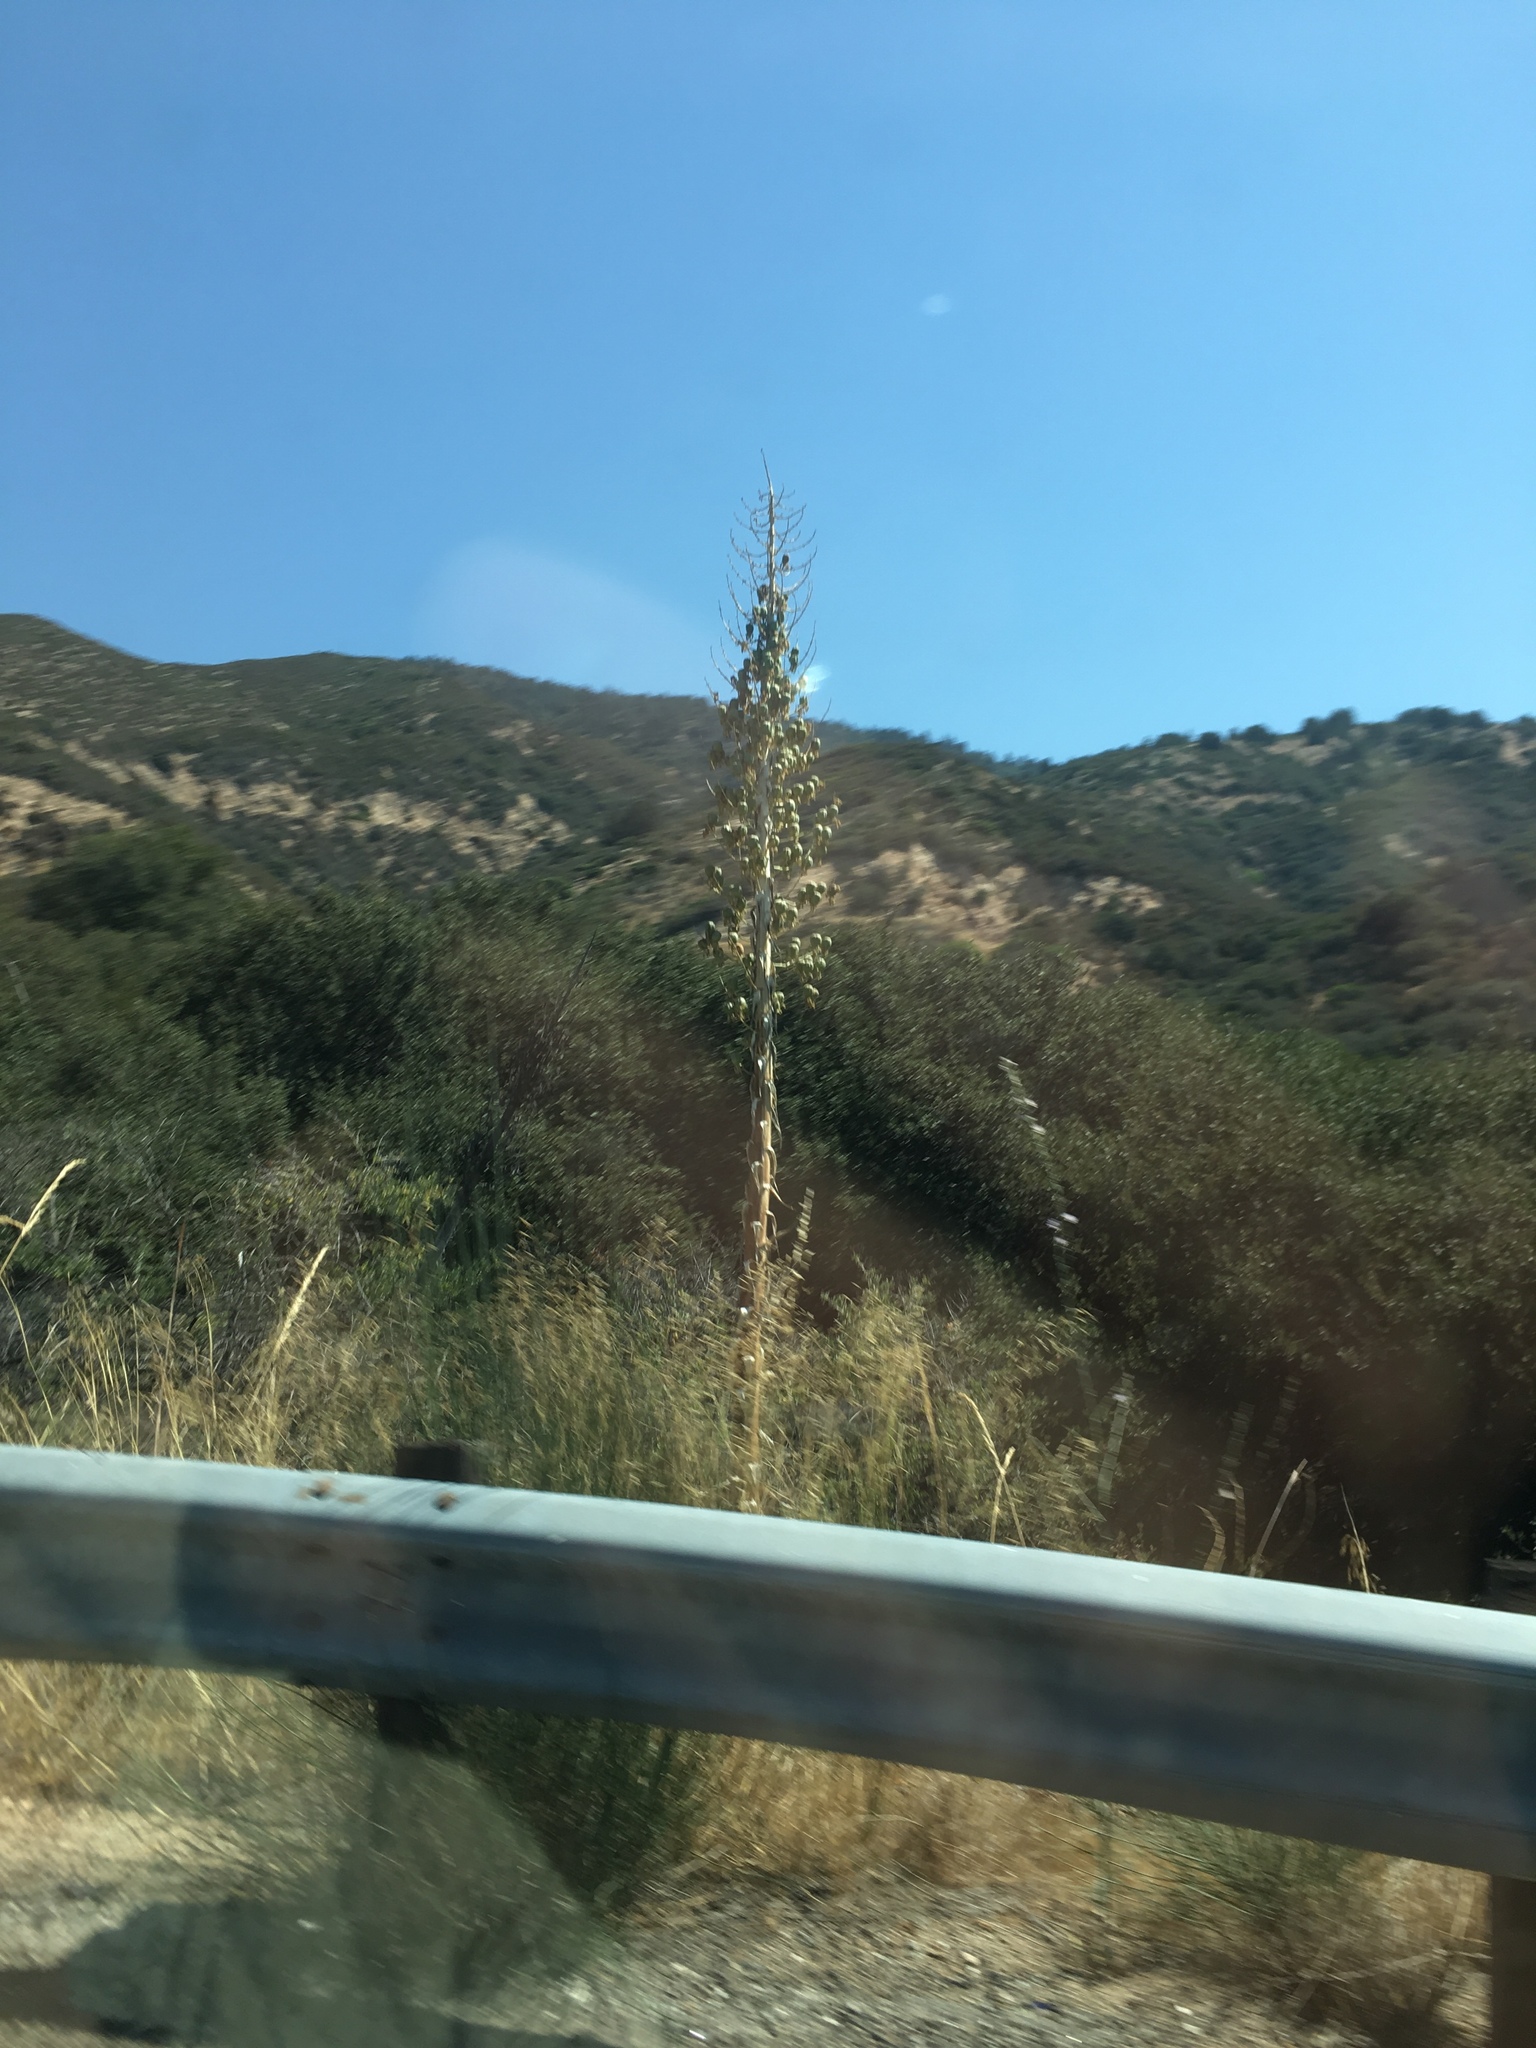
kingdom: Plantae
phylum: Tracheophyta
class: Liliopsida
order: Asparagales
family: Asparagaceae
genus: Hesperoyucca
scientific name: Hesperoyucca whipplei
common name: Our lord's-candle
